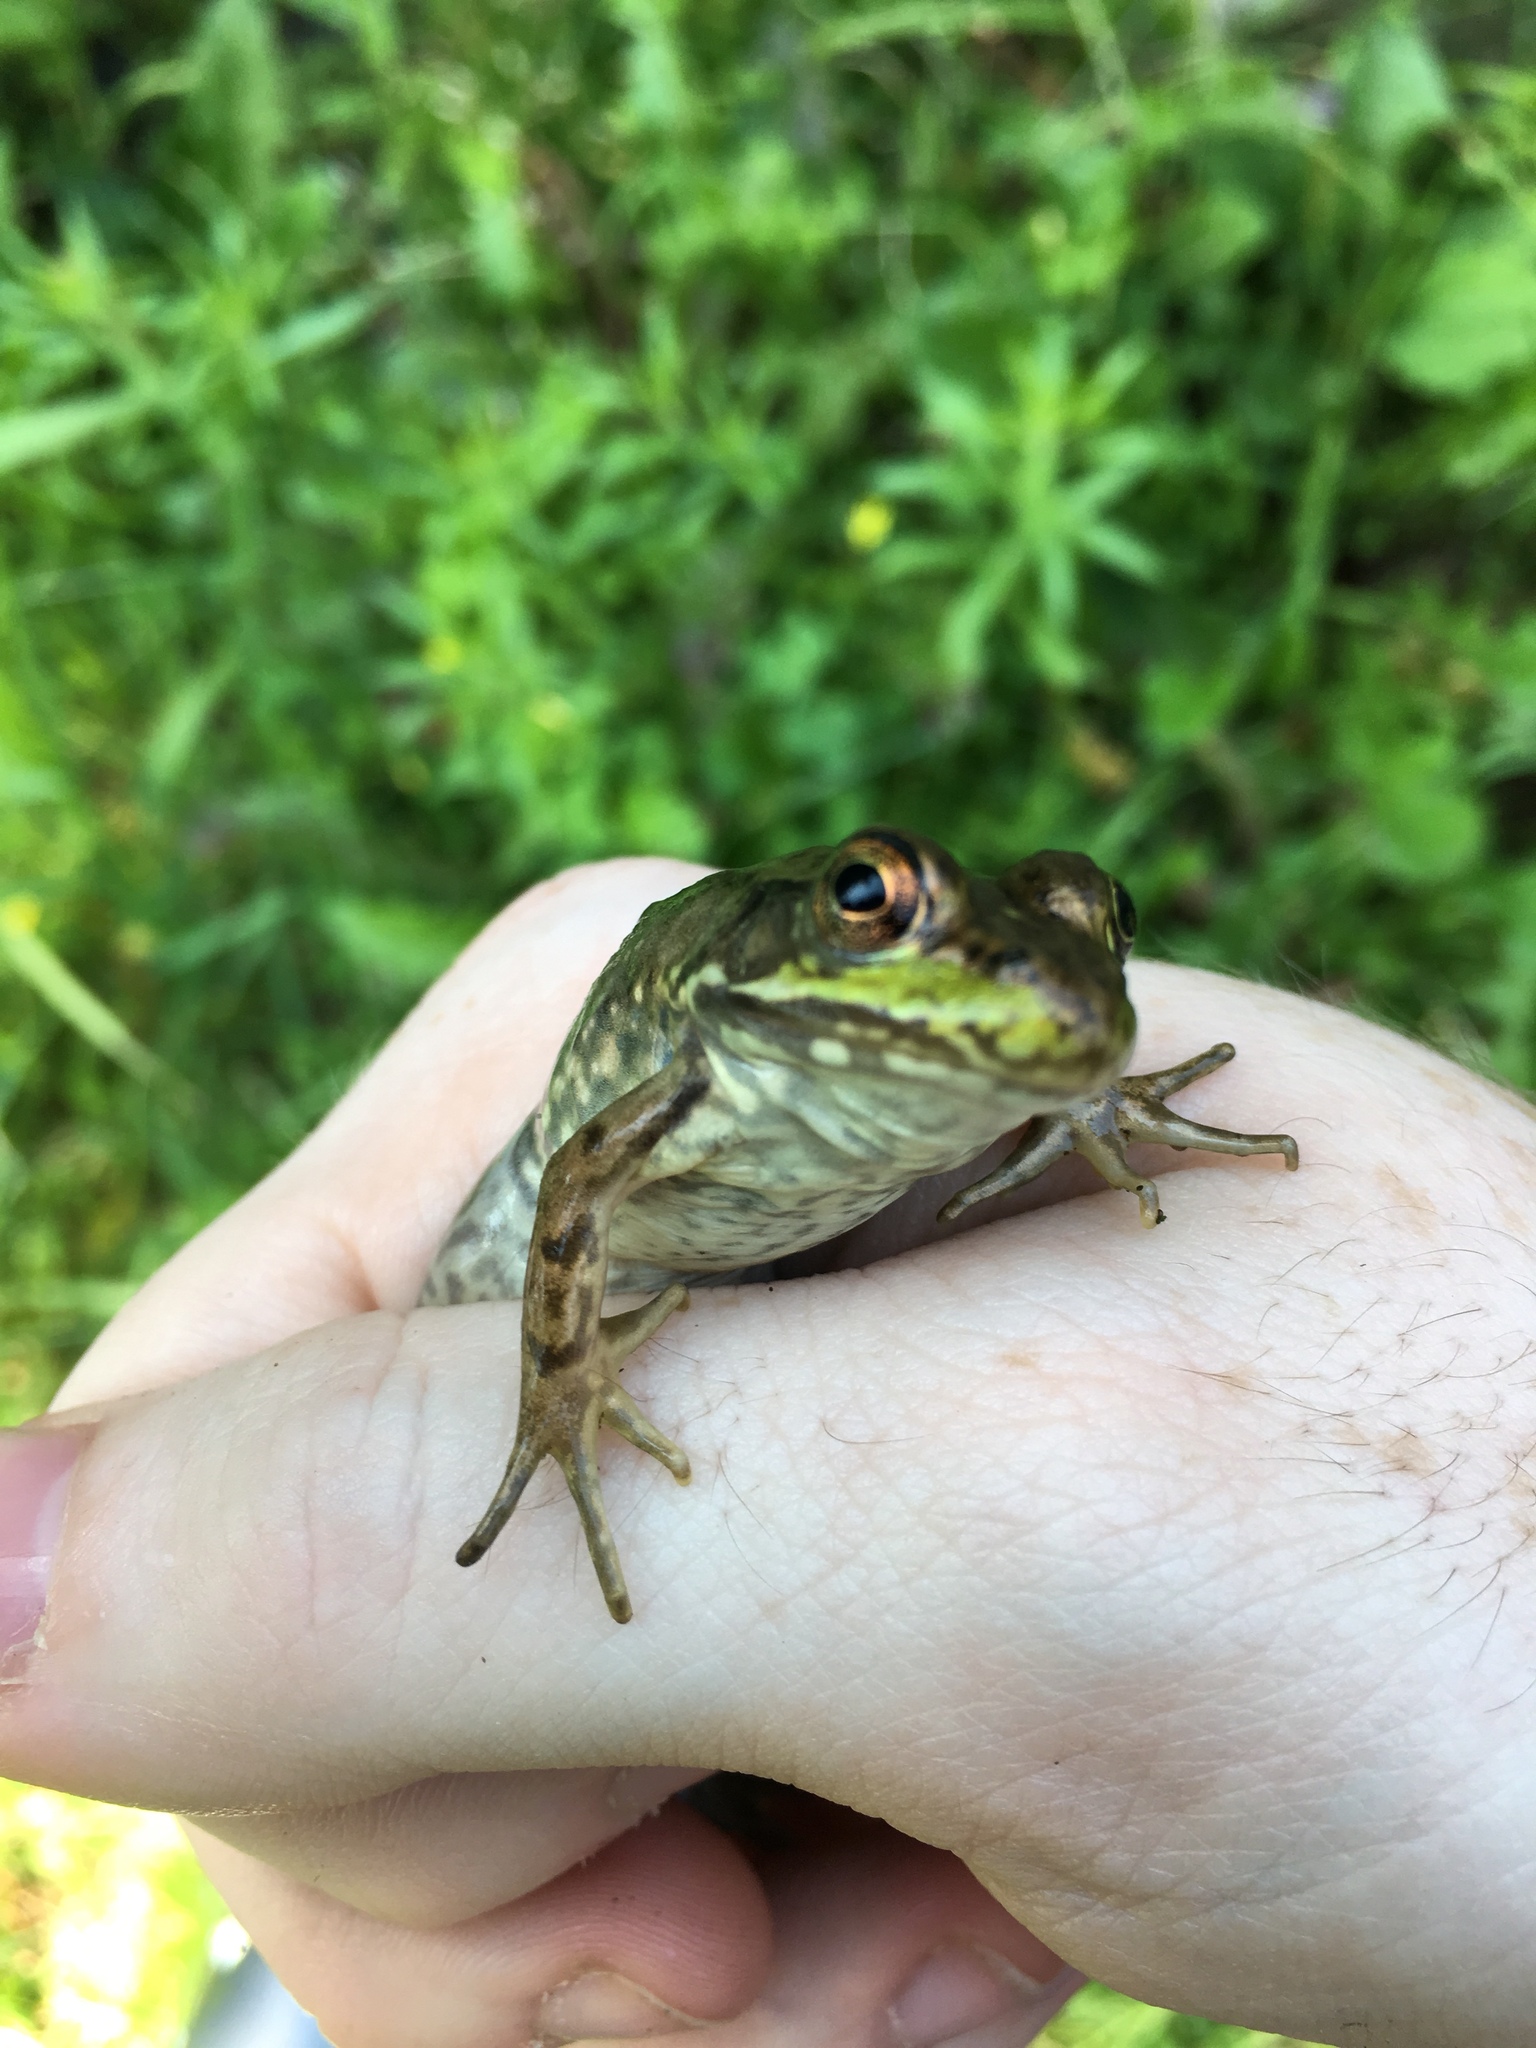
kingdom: Animalia
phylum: Chordata
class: Amphibia
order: Anura
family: Ranidae
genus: Lithobates
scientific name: Lithobates clamitans
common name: Green frog
